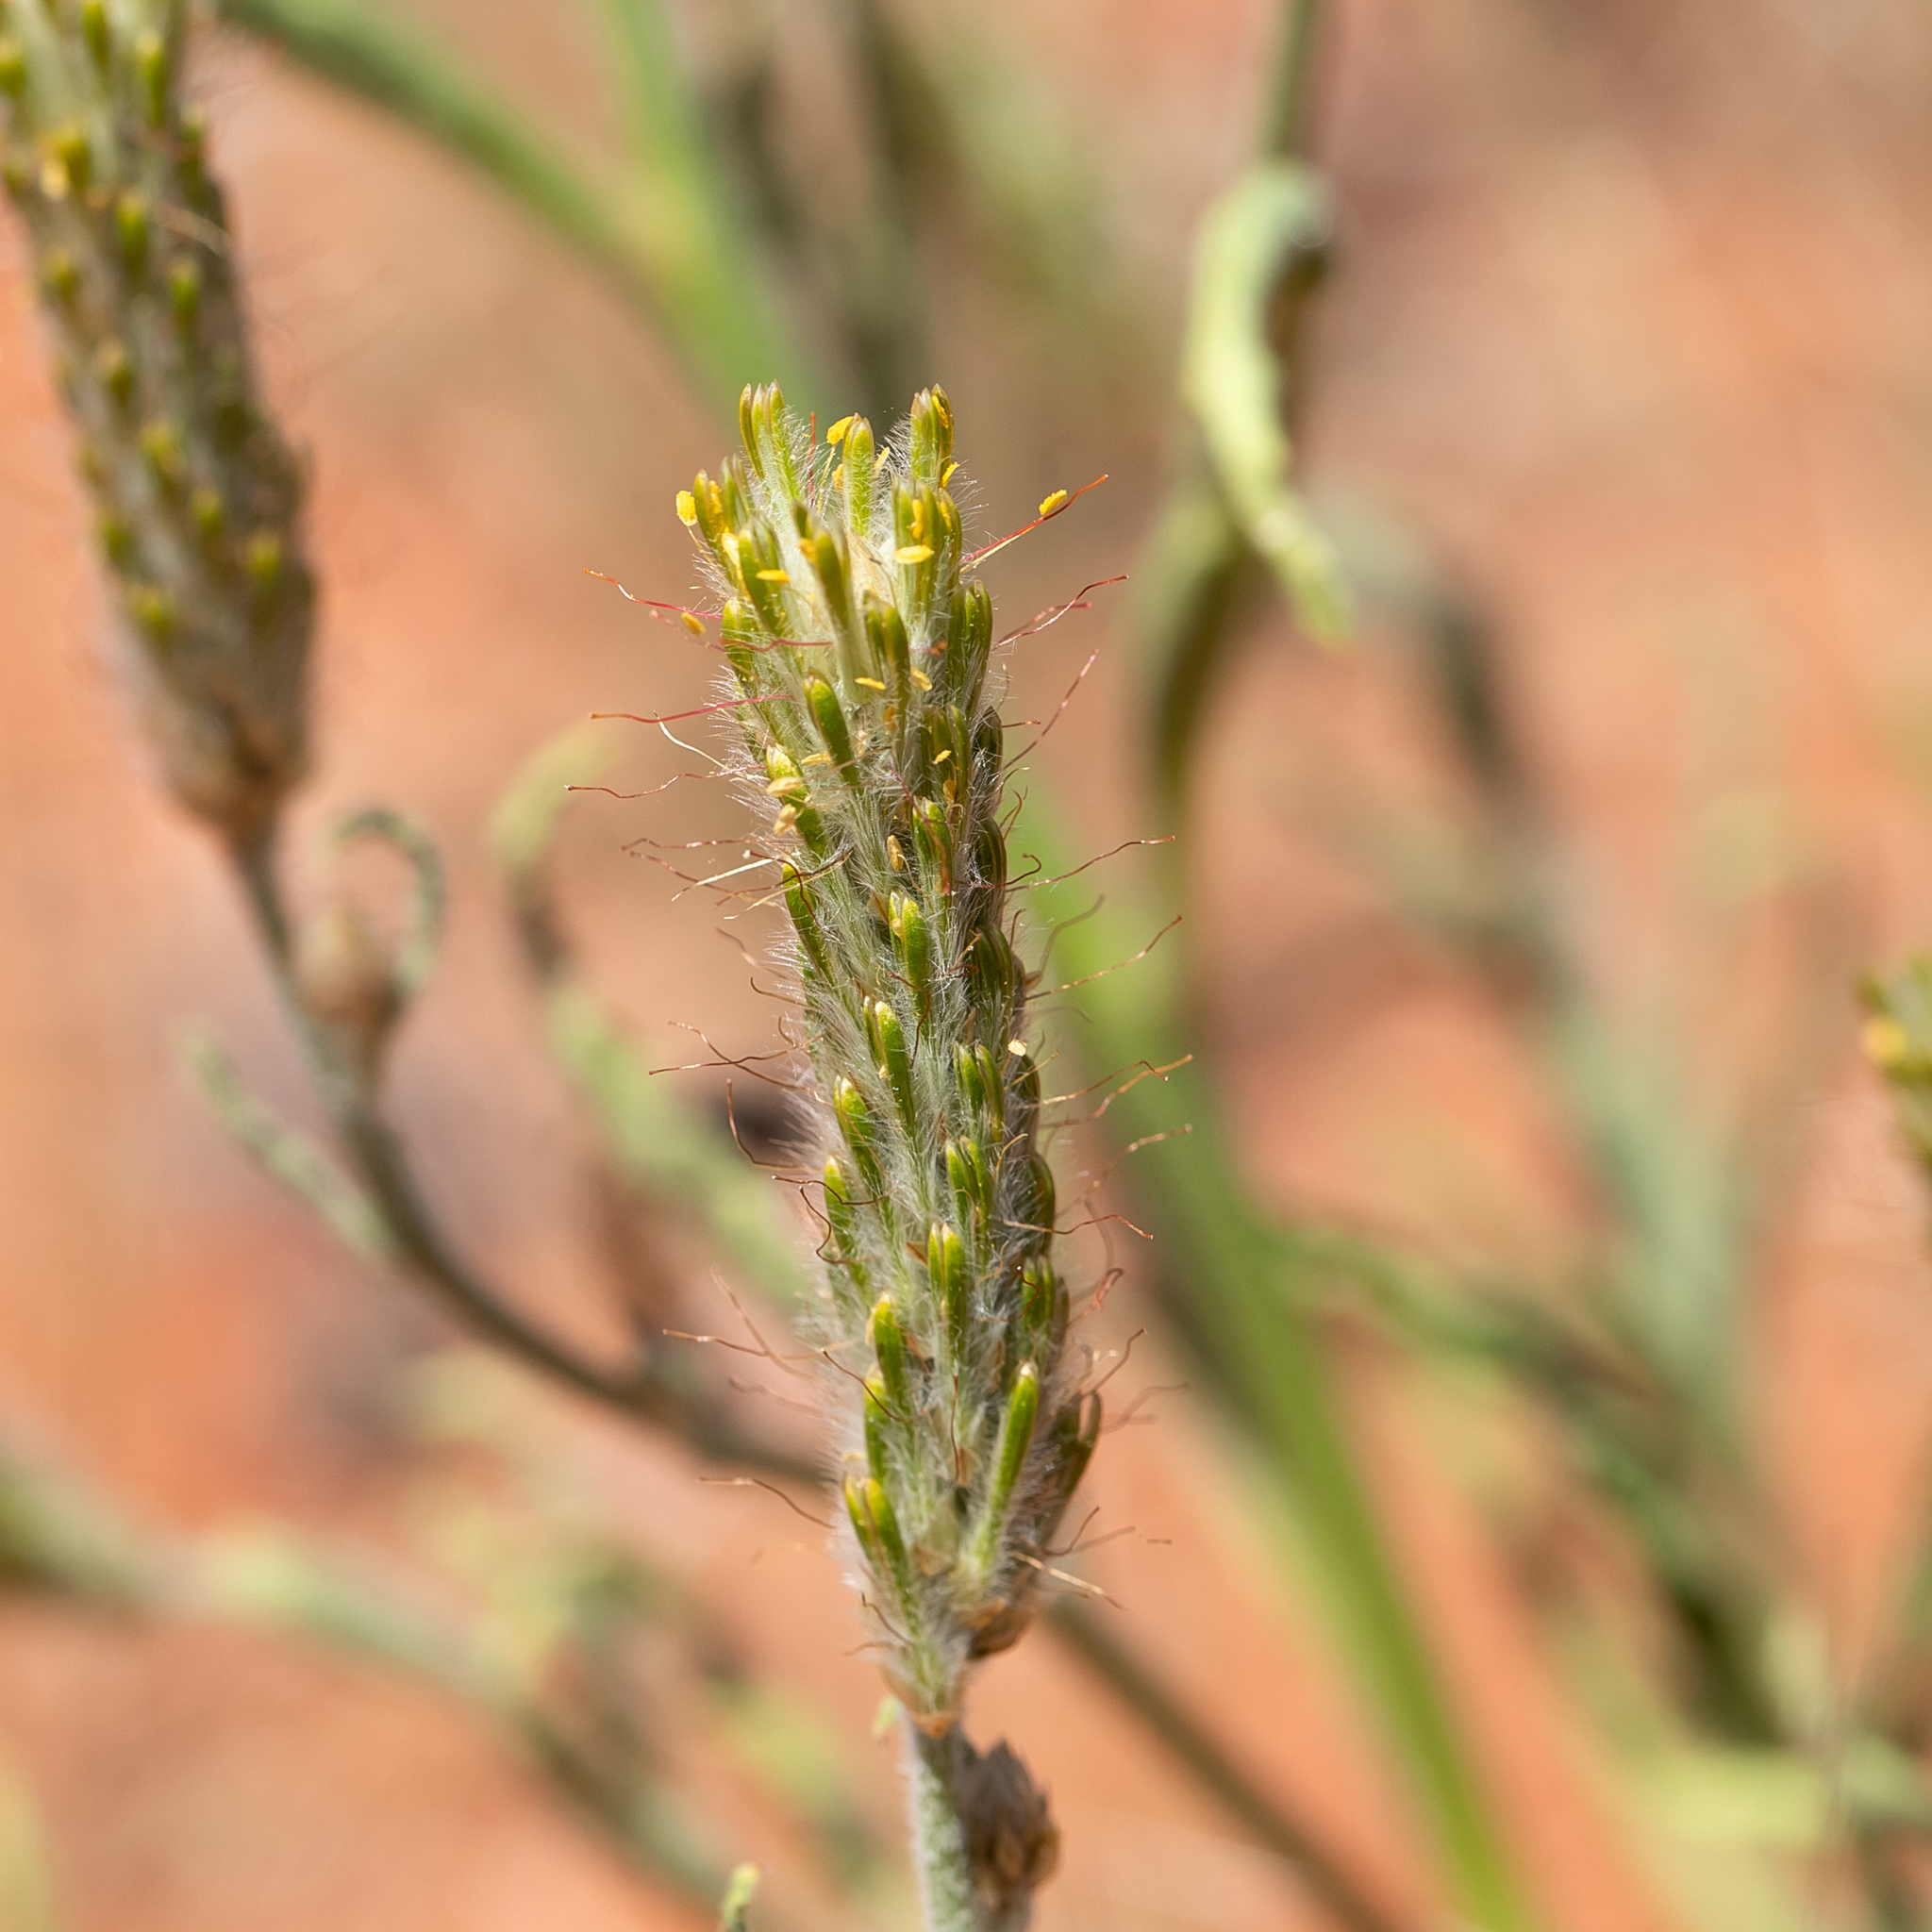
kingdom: Plantae
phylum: Tracheophyta
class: Magnoliopsida
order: Caryophyllales
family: Amaranthaceae
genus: Ptilotus
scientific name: Ptilotus polystachyus
